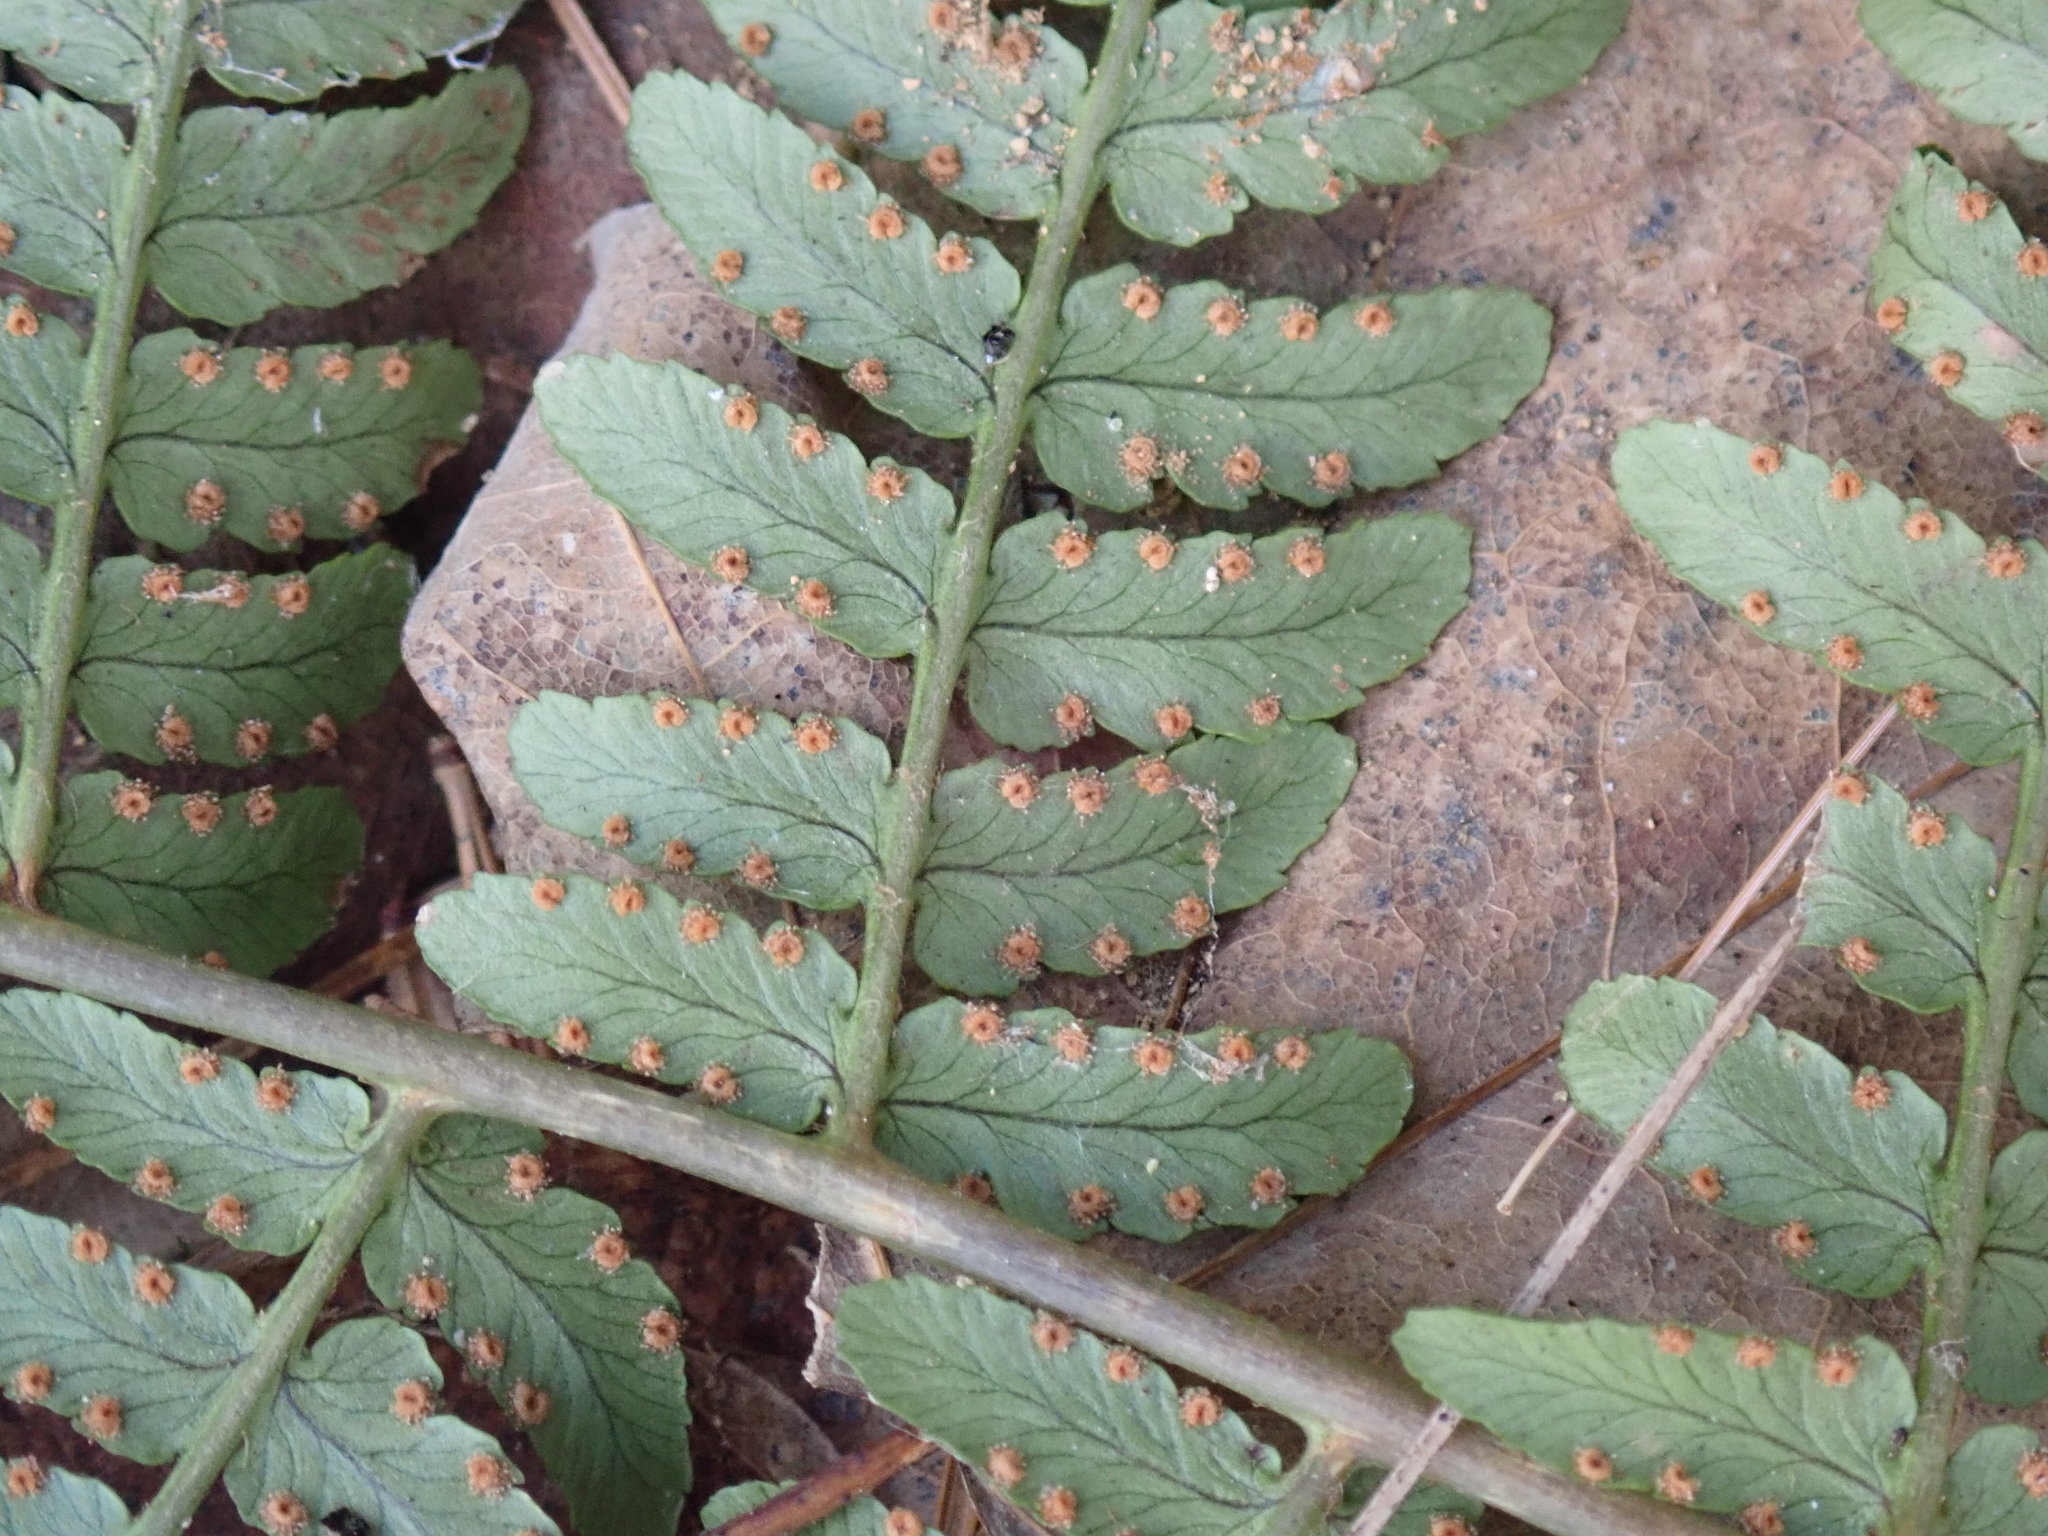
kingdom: Plantae
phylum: Tracheophyta
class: Polypodiopsida
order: Polypodiales
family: Dryopteridaceae
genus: Dryopteris
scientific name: Dryopteris marginalis
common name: Marginal wood fern
